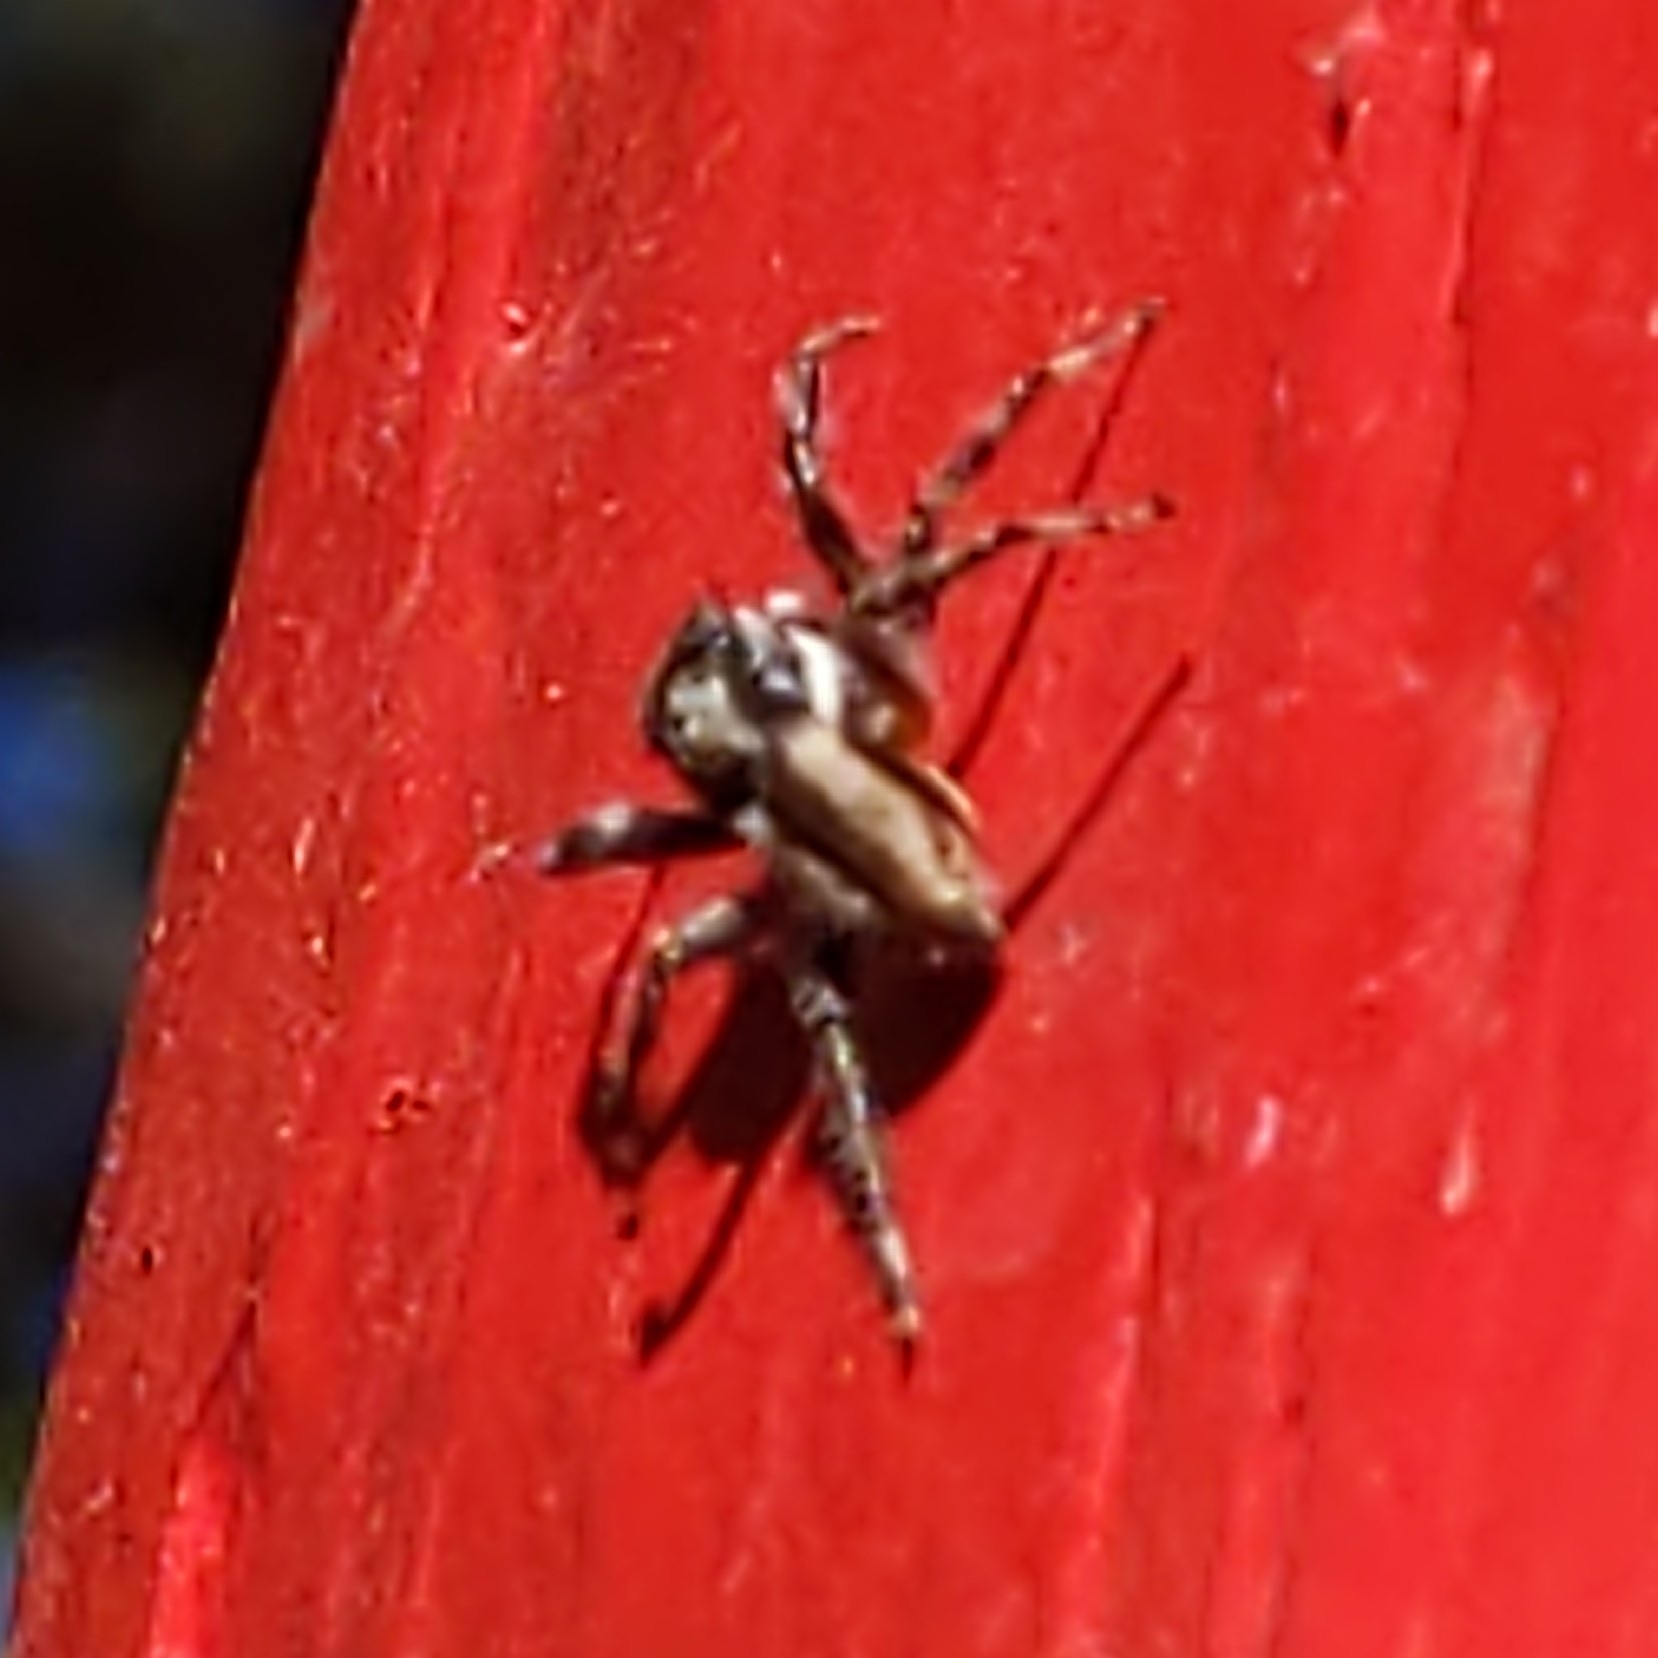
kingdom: Animalia
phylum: Arthropoda
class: Arachnida
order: Araneae
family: Salticidae
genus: Menemerus
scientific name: Menemerus bivittatus
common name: Gray wall jumper
